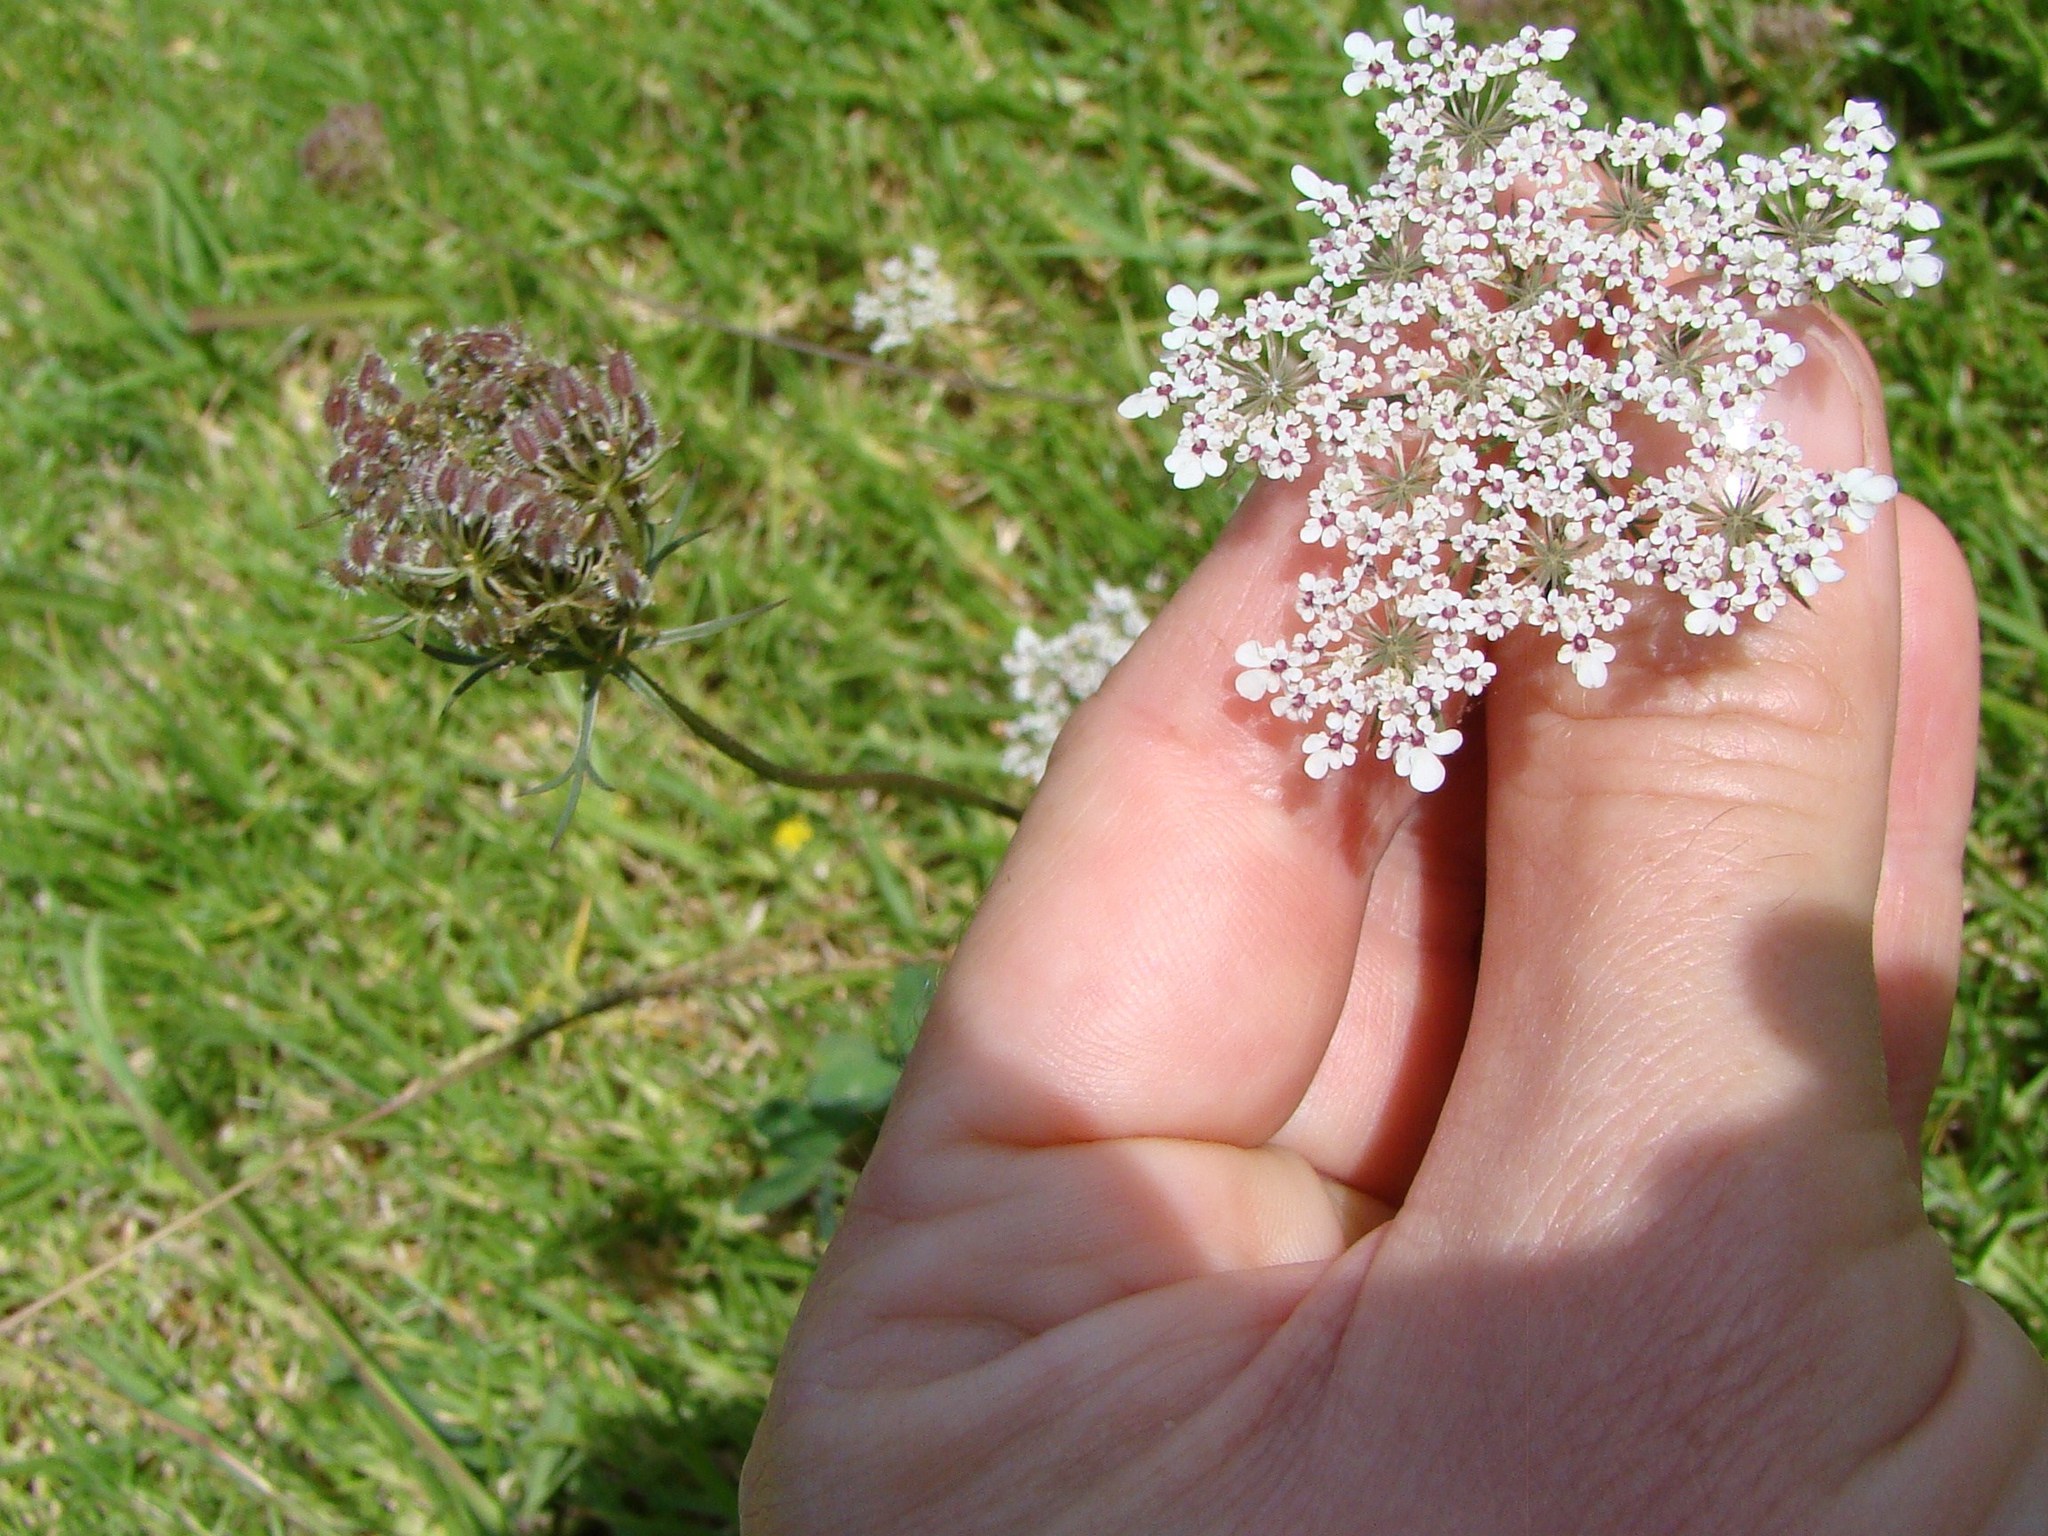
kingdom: Plantae
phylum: Tracheophyta
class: Magnoliopsida
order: Apiales
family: Apiaceae
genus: Daucus
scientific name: Daucus carota
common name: Wild carrot
